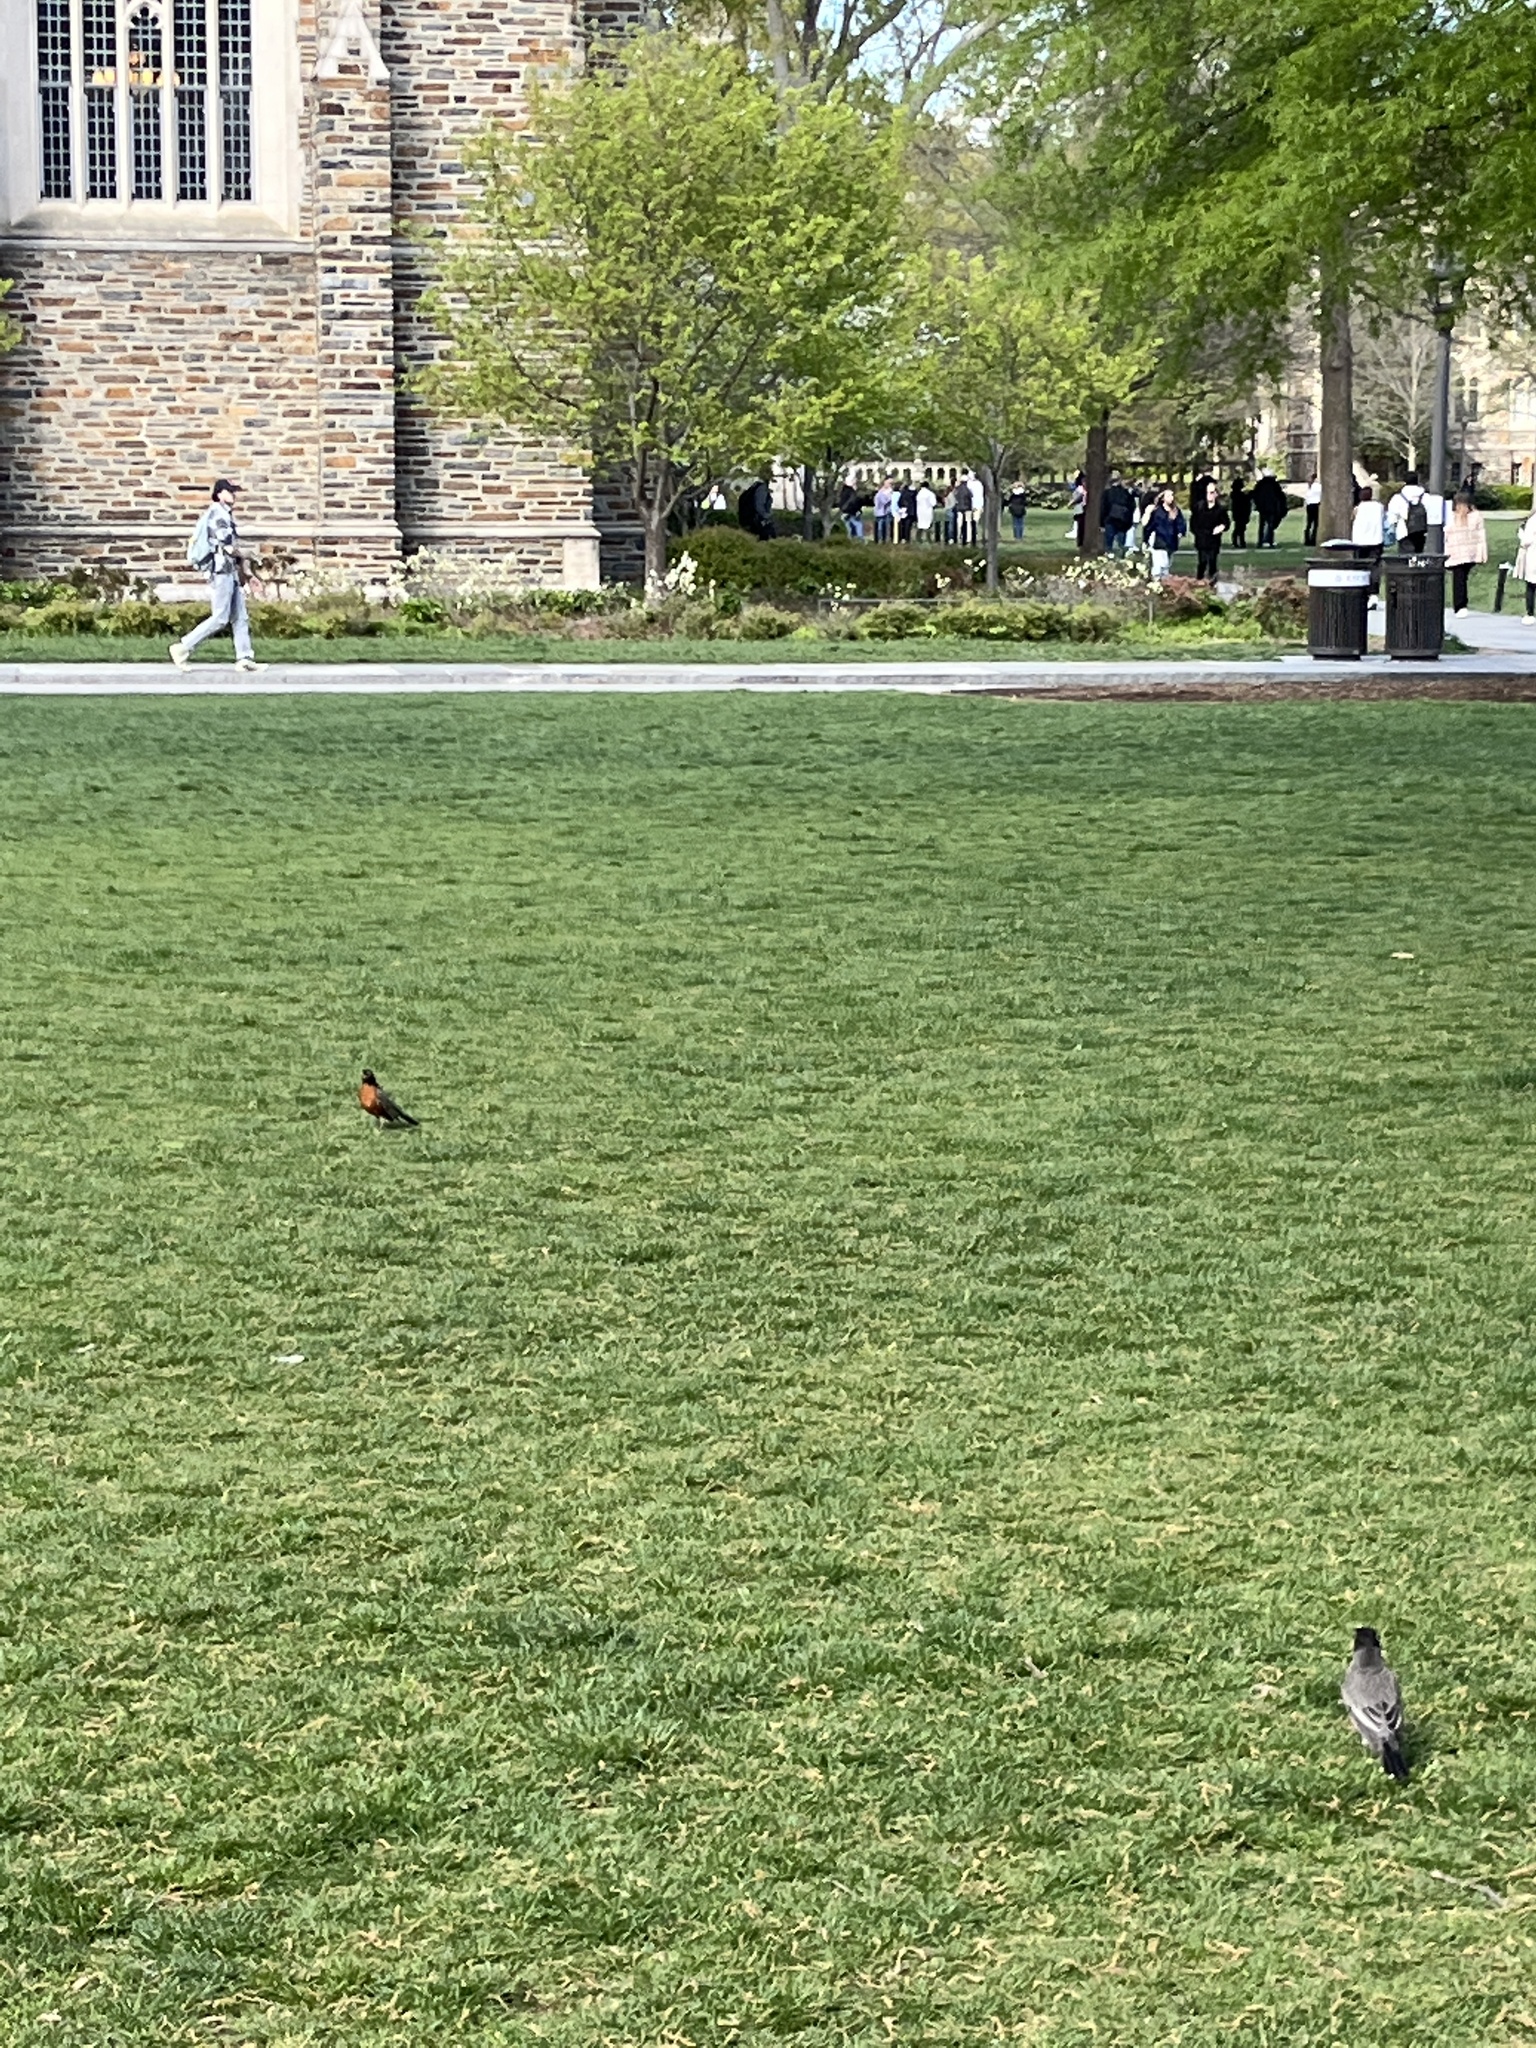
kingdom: Animalia
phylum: Chordata
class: Aves
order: Passeriformes
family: Turdidae
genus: Turdus
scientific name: Turdus migratorius
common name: American robin
